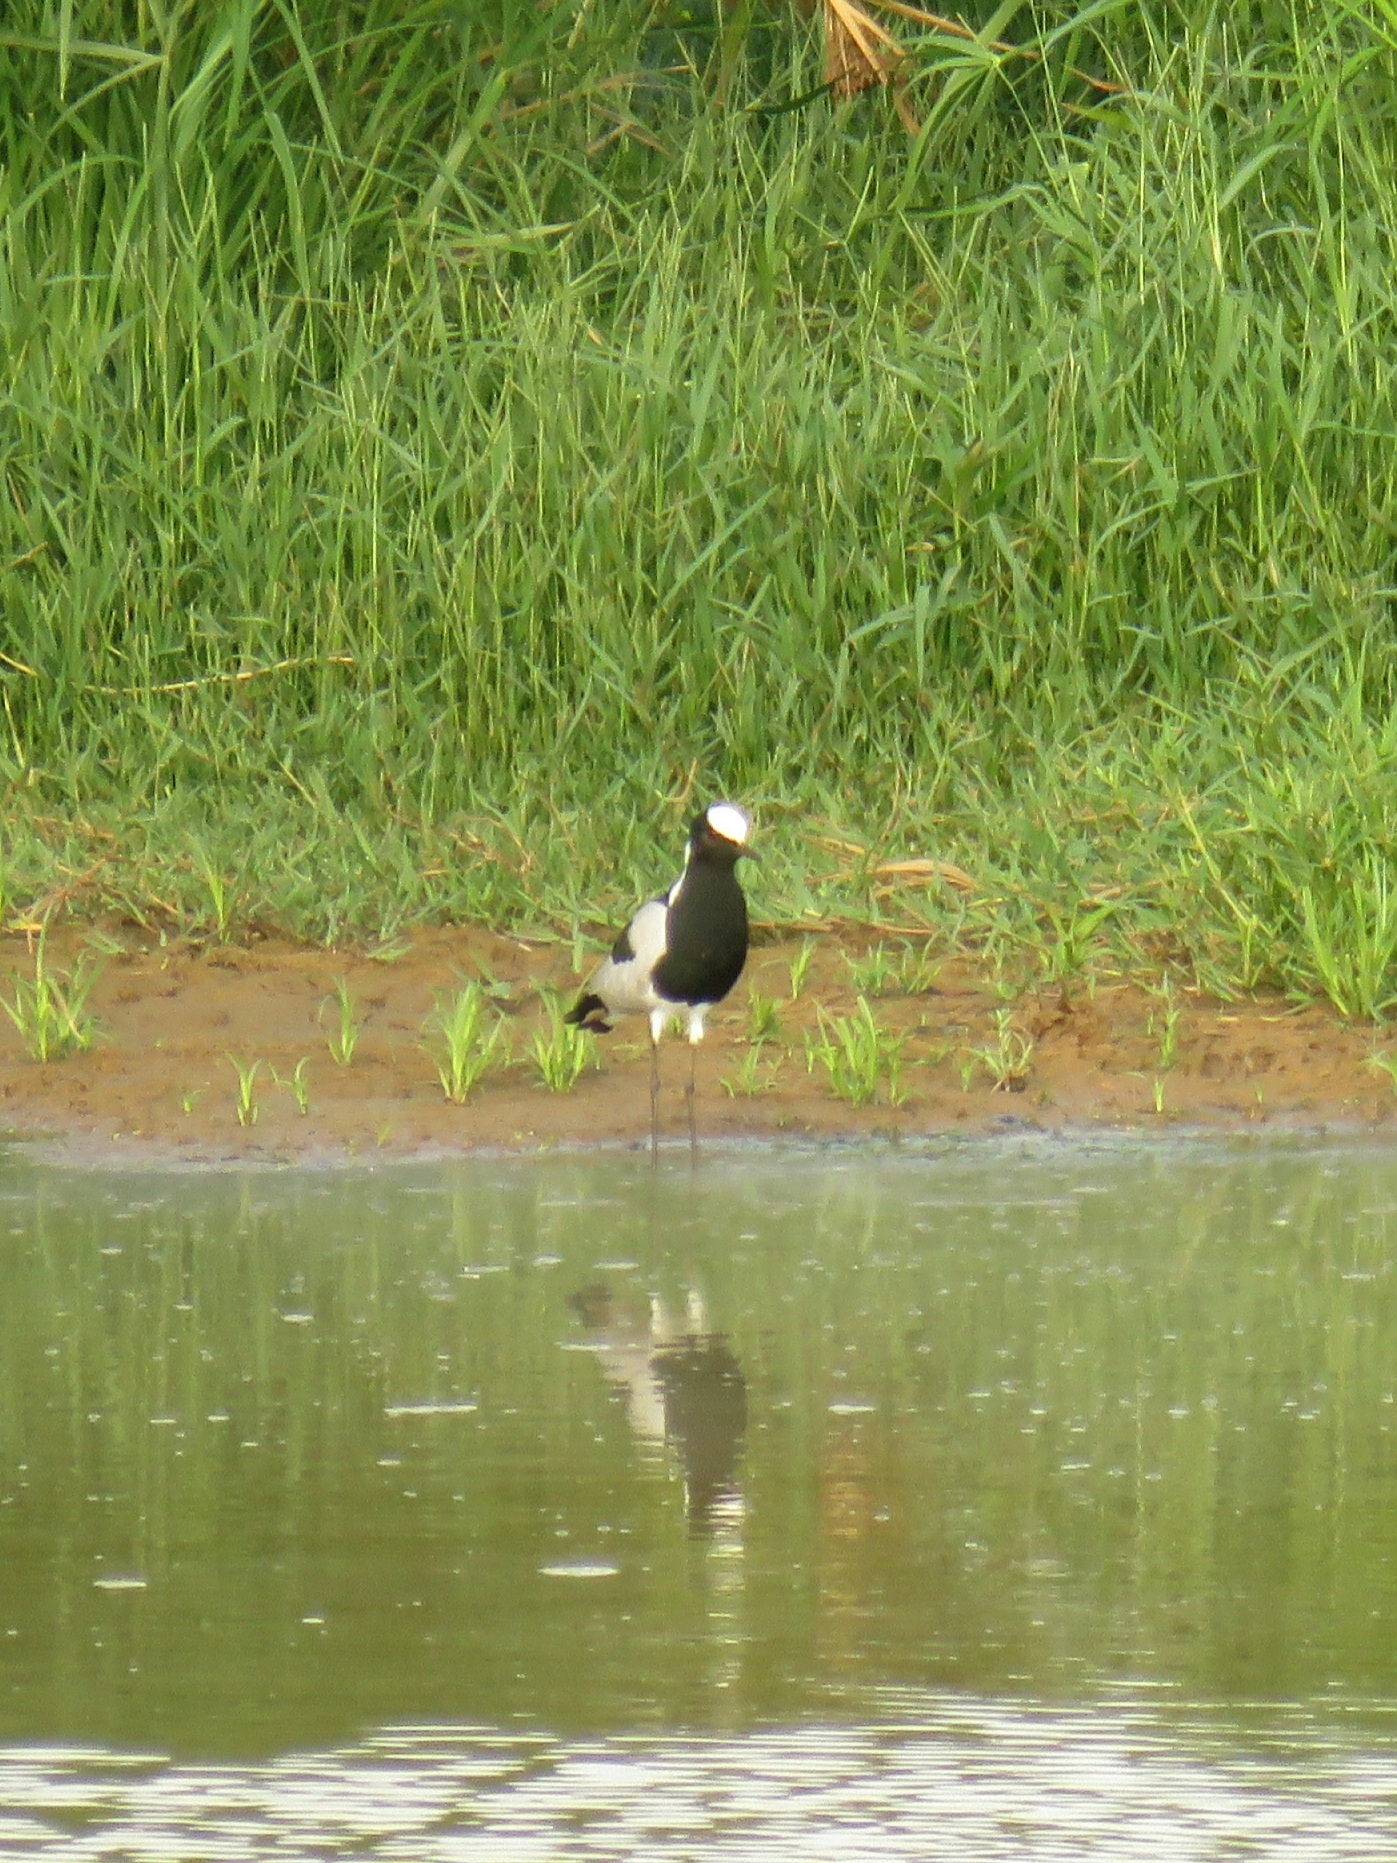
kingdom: Animalia
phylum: Chordata
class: Aves
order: Charadriiformes
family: Charadriidae
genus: Vanellus
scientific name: Vanellus armatus
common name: Blacksmith lapwing
